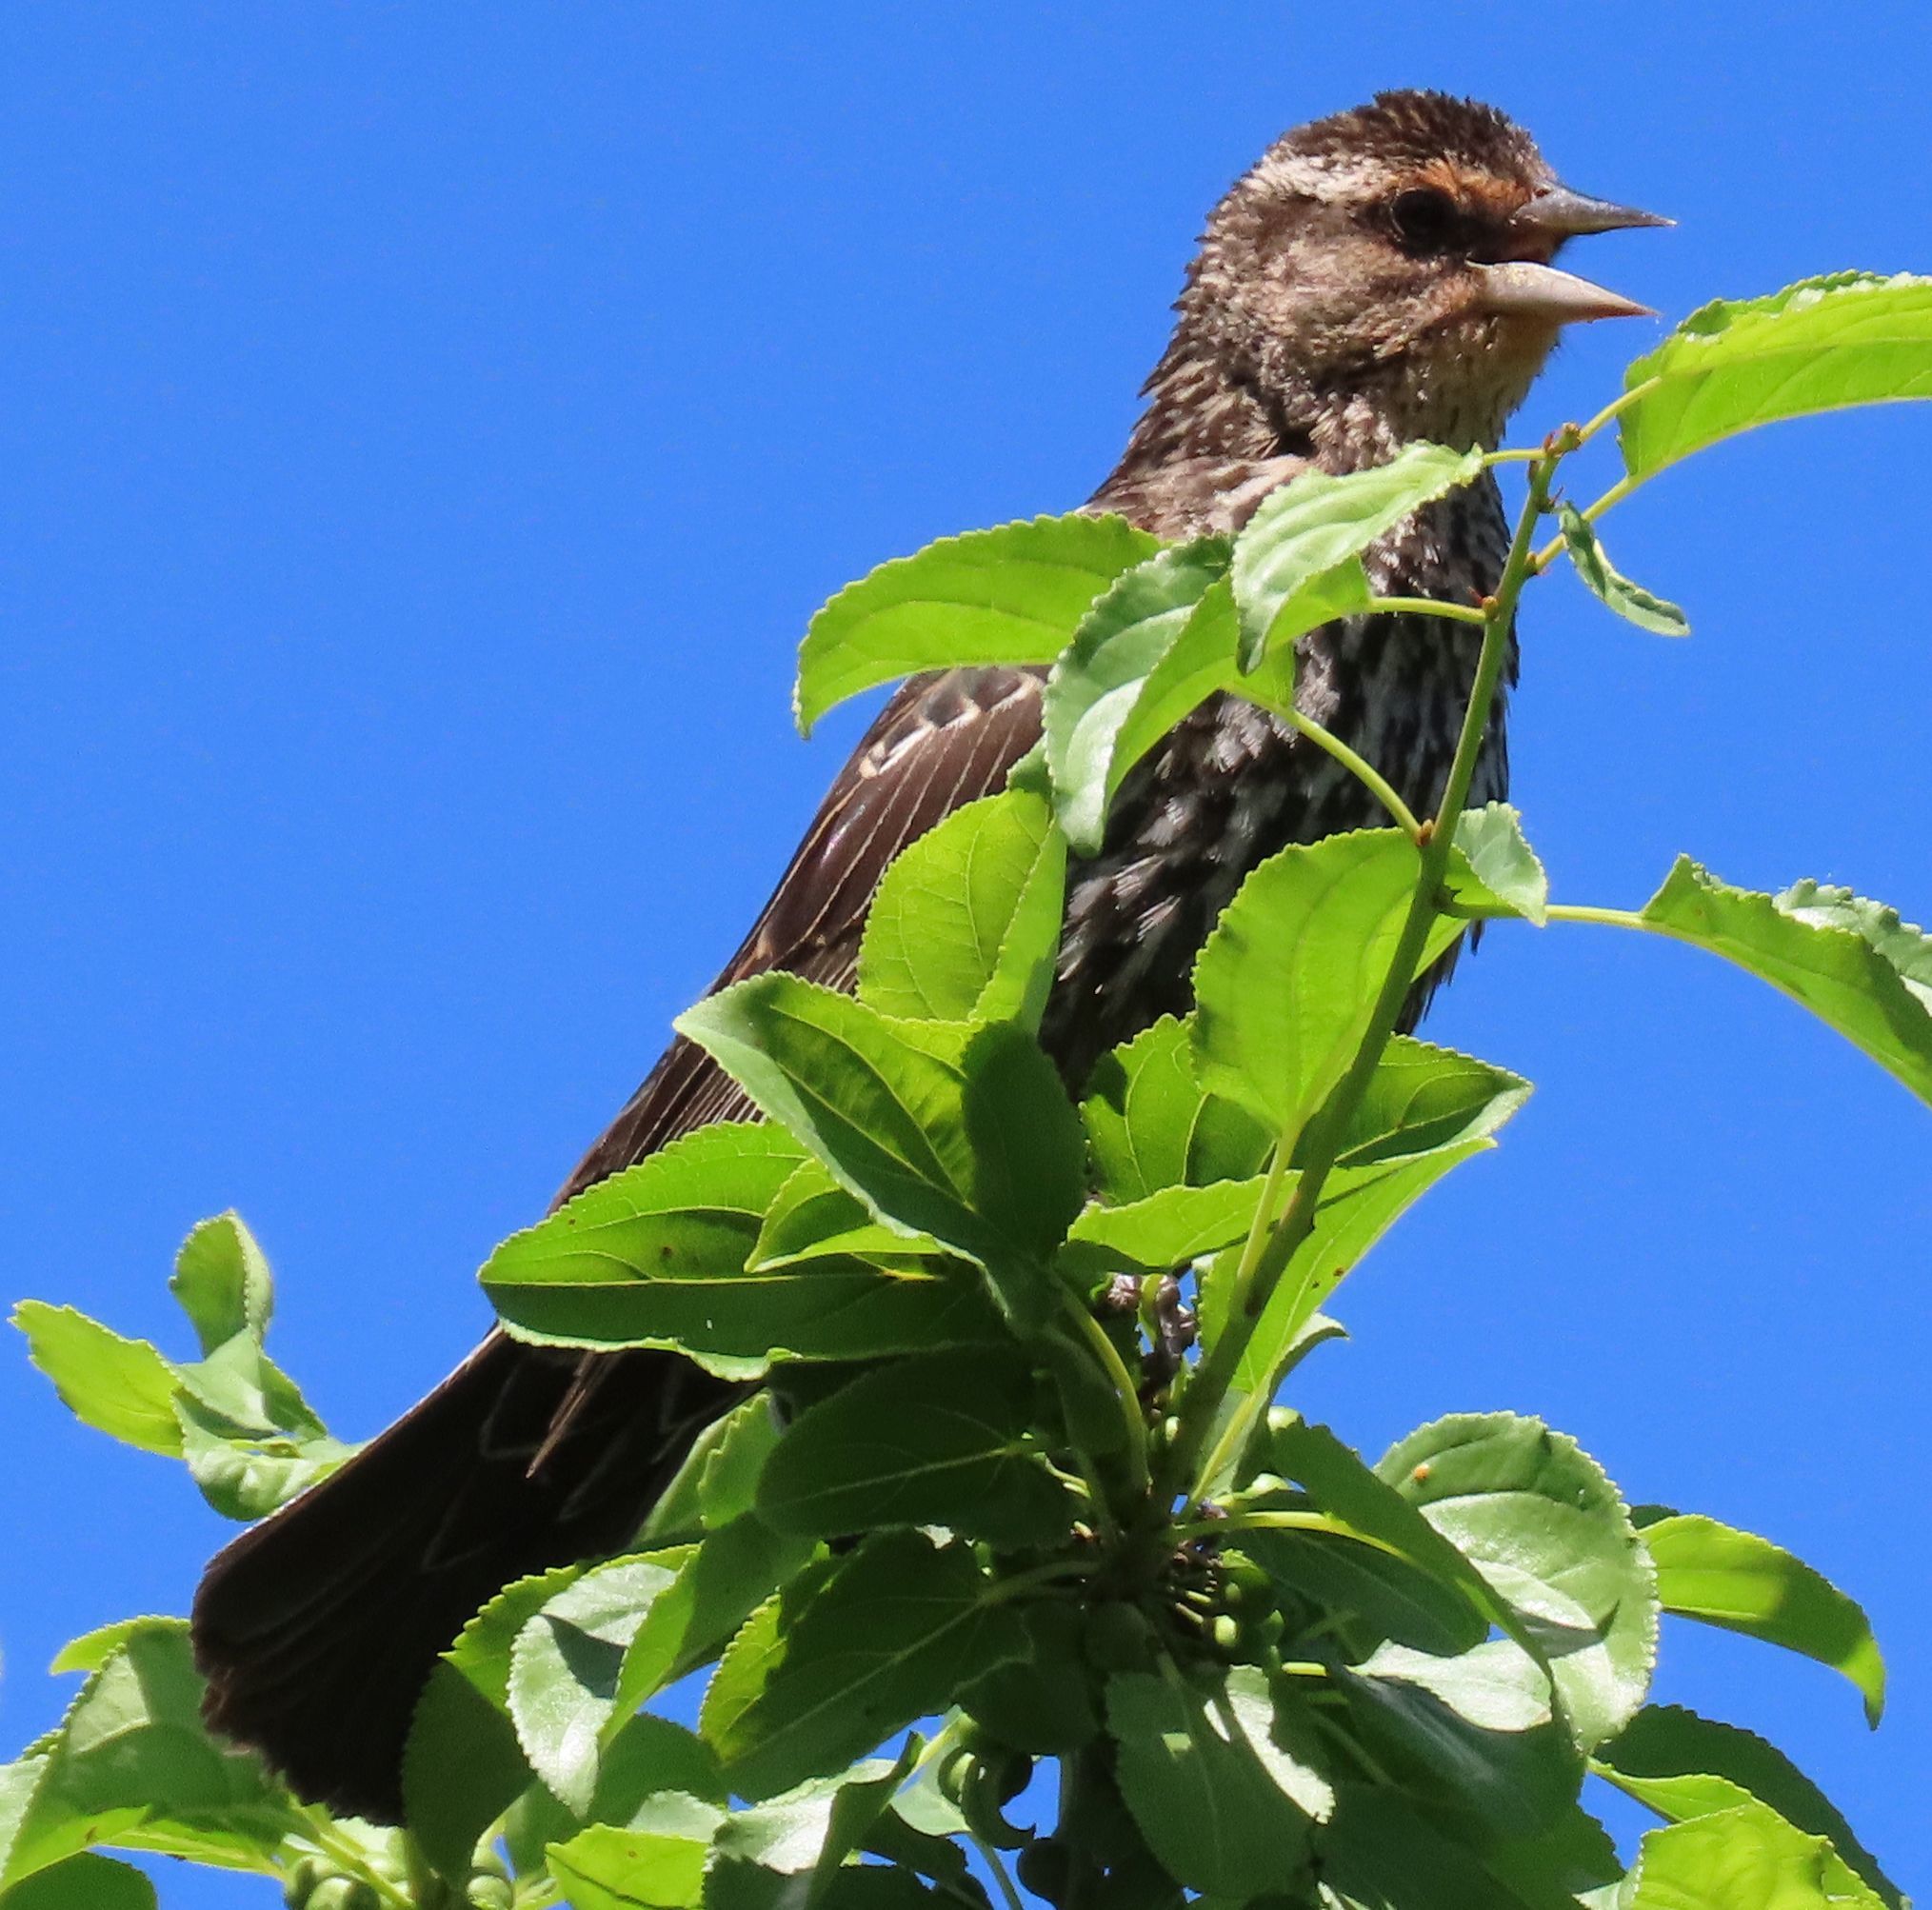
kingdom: Animalia
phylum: Chordata
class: Aves
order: Passeriformes
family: Icteridae
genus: Agelaius
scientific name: Agelaius phoeniceus
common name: Red-winged blackbird
